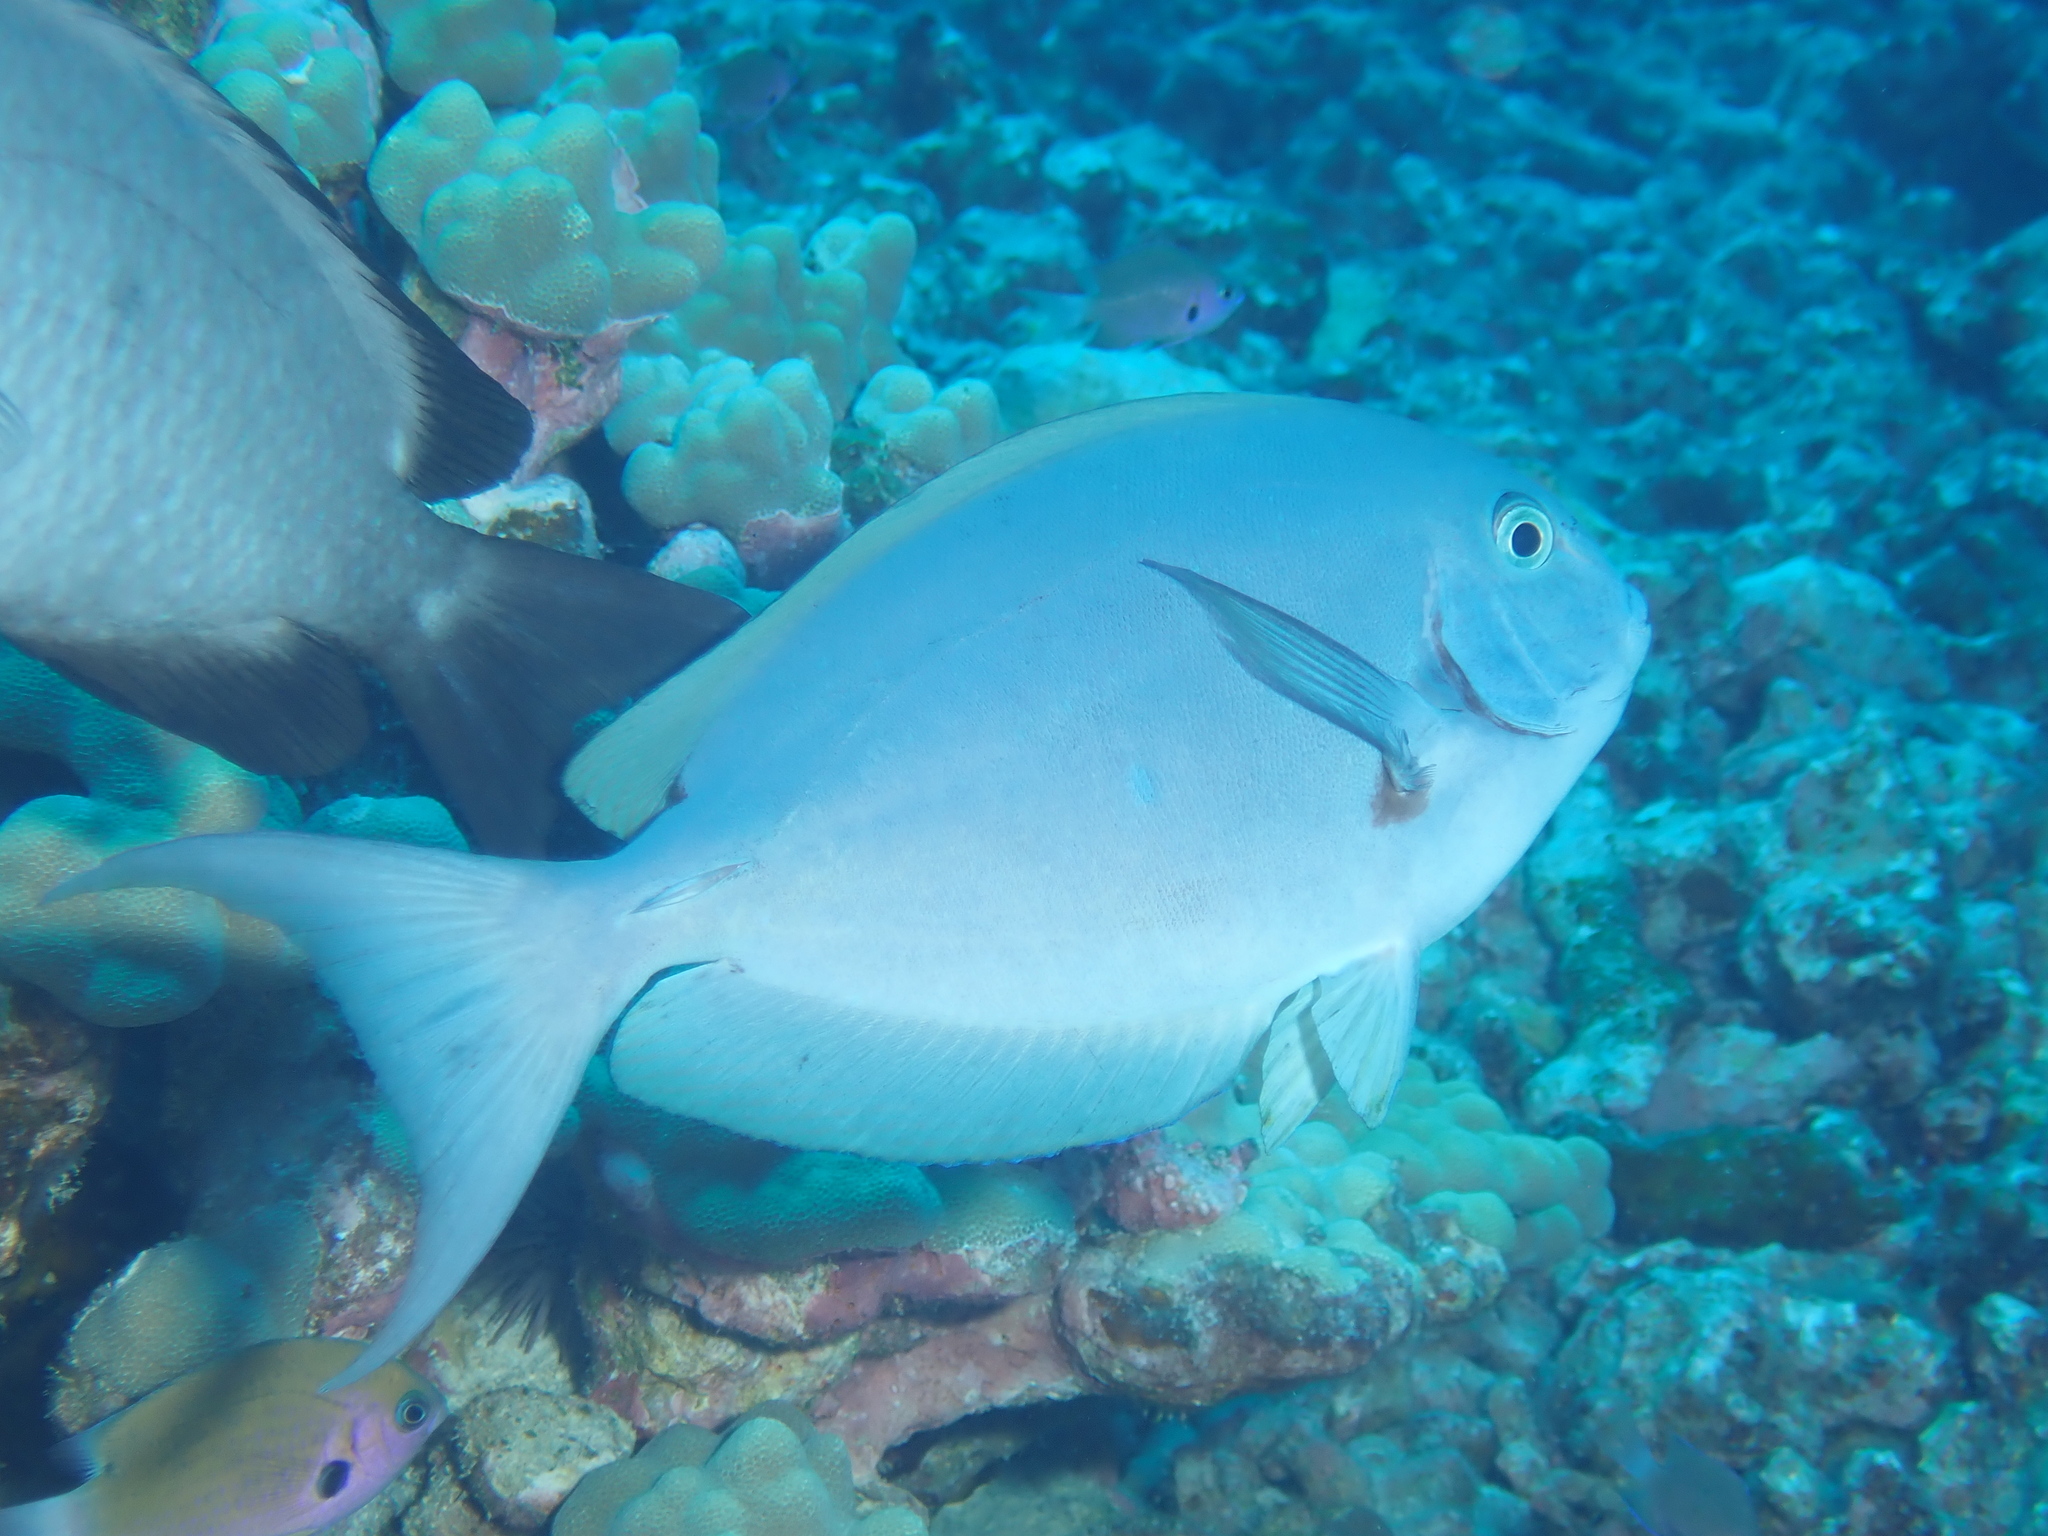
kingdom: Animalia
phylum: Chordata
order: Perciformes
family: Acanthuridae
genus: Acanthurus
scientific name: Acanthurus thompsoni
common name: Chocolate surgeonfish
